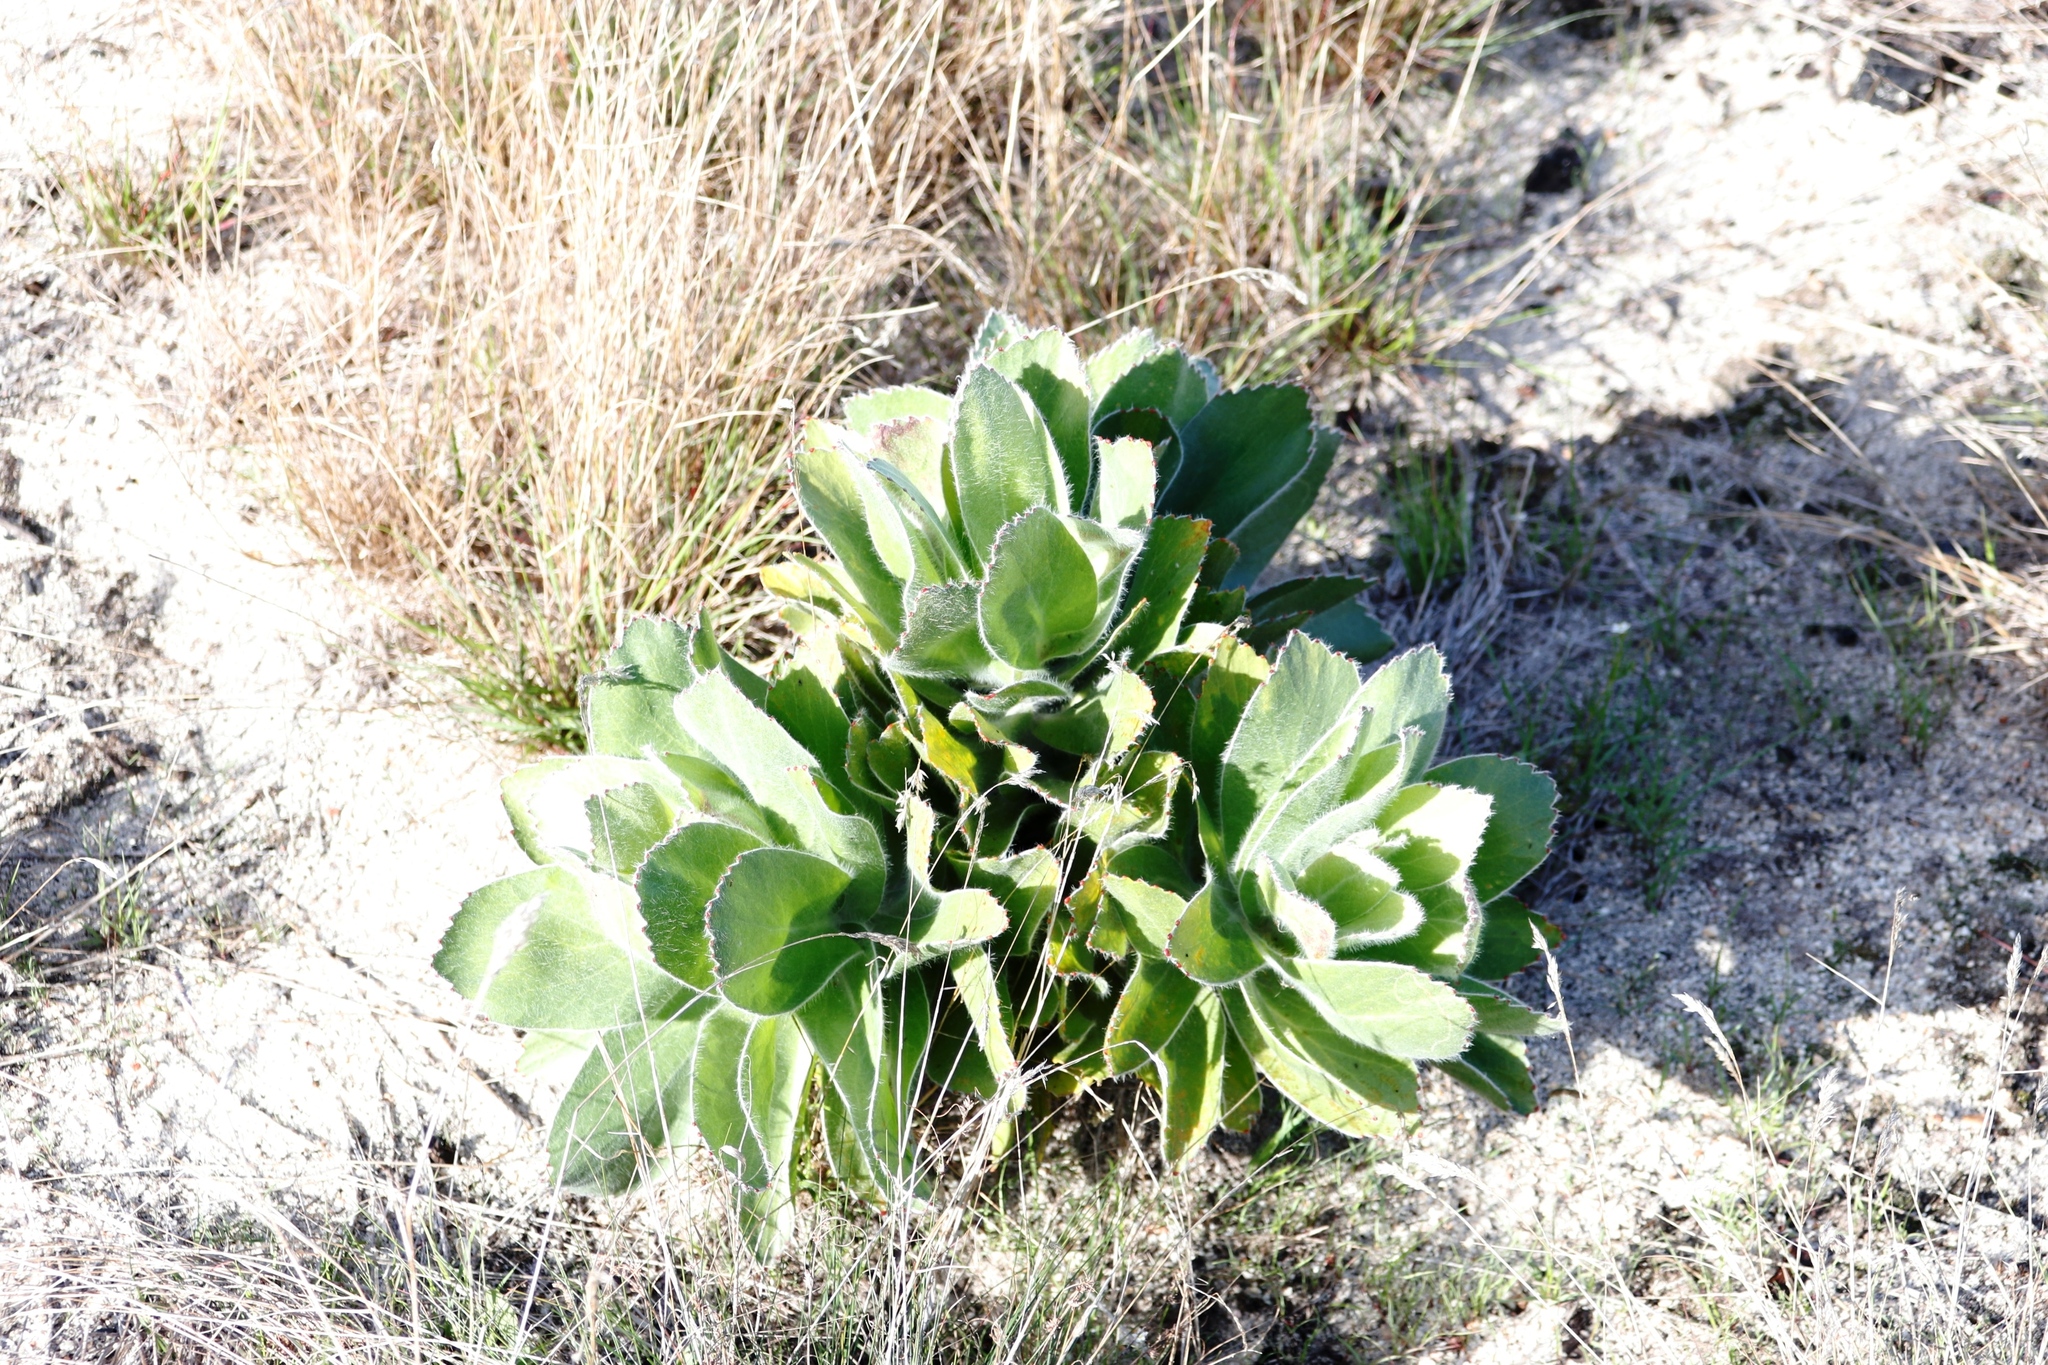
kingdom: Plantae
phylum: Tracheophyta
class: Magnoliopsida
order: Proteales
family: Proteaceae
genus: Leucospermum
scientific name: Leucospermum conocarpodendron
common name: Tree pincushion
